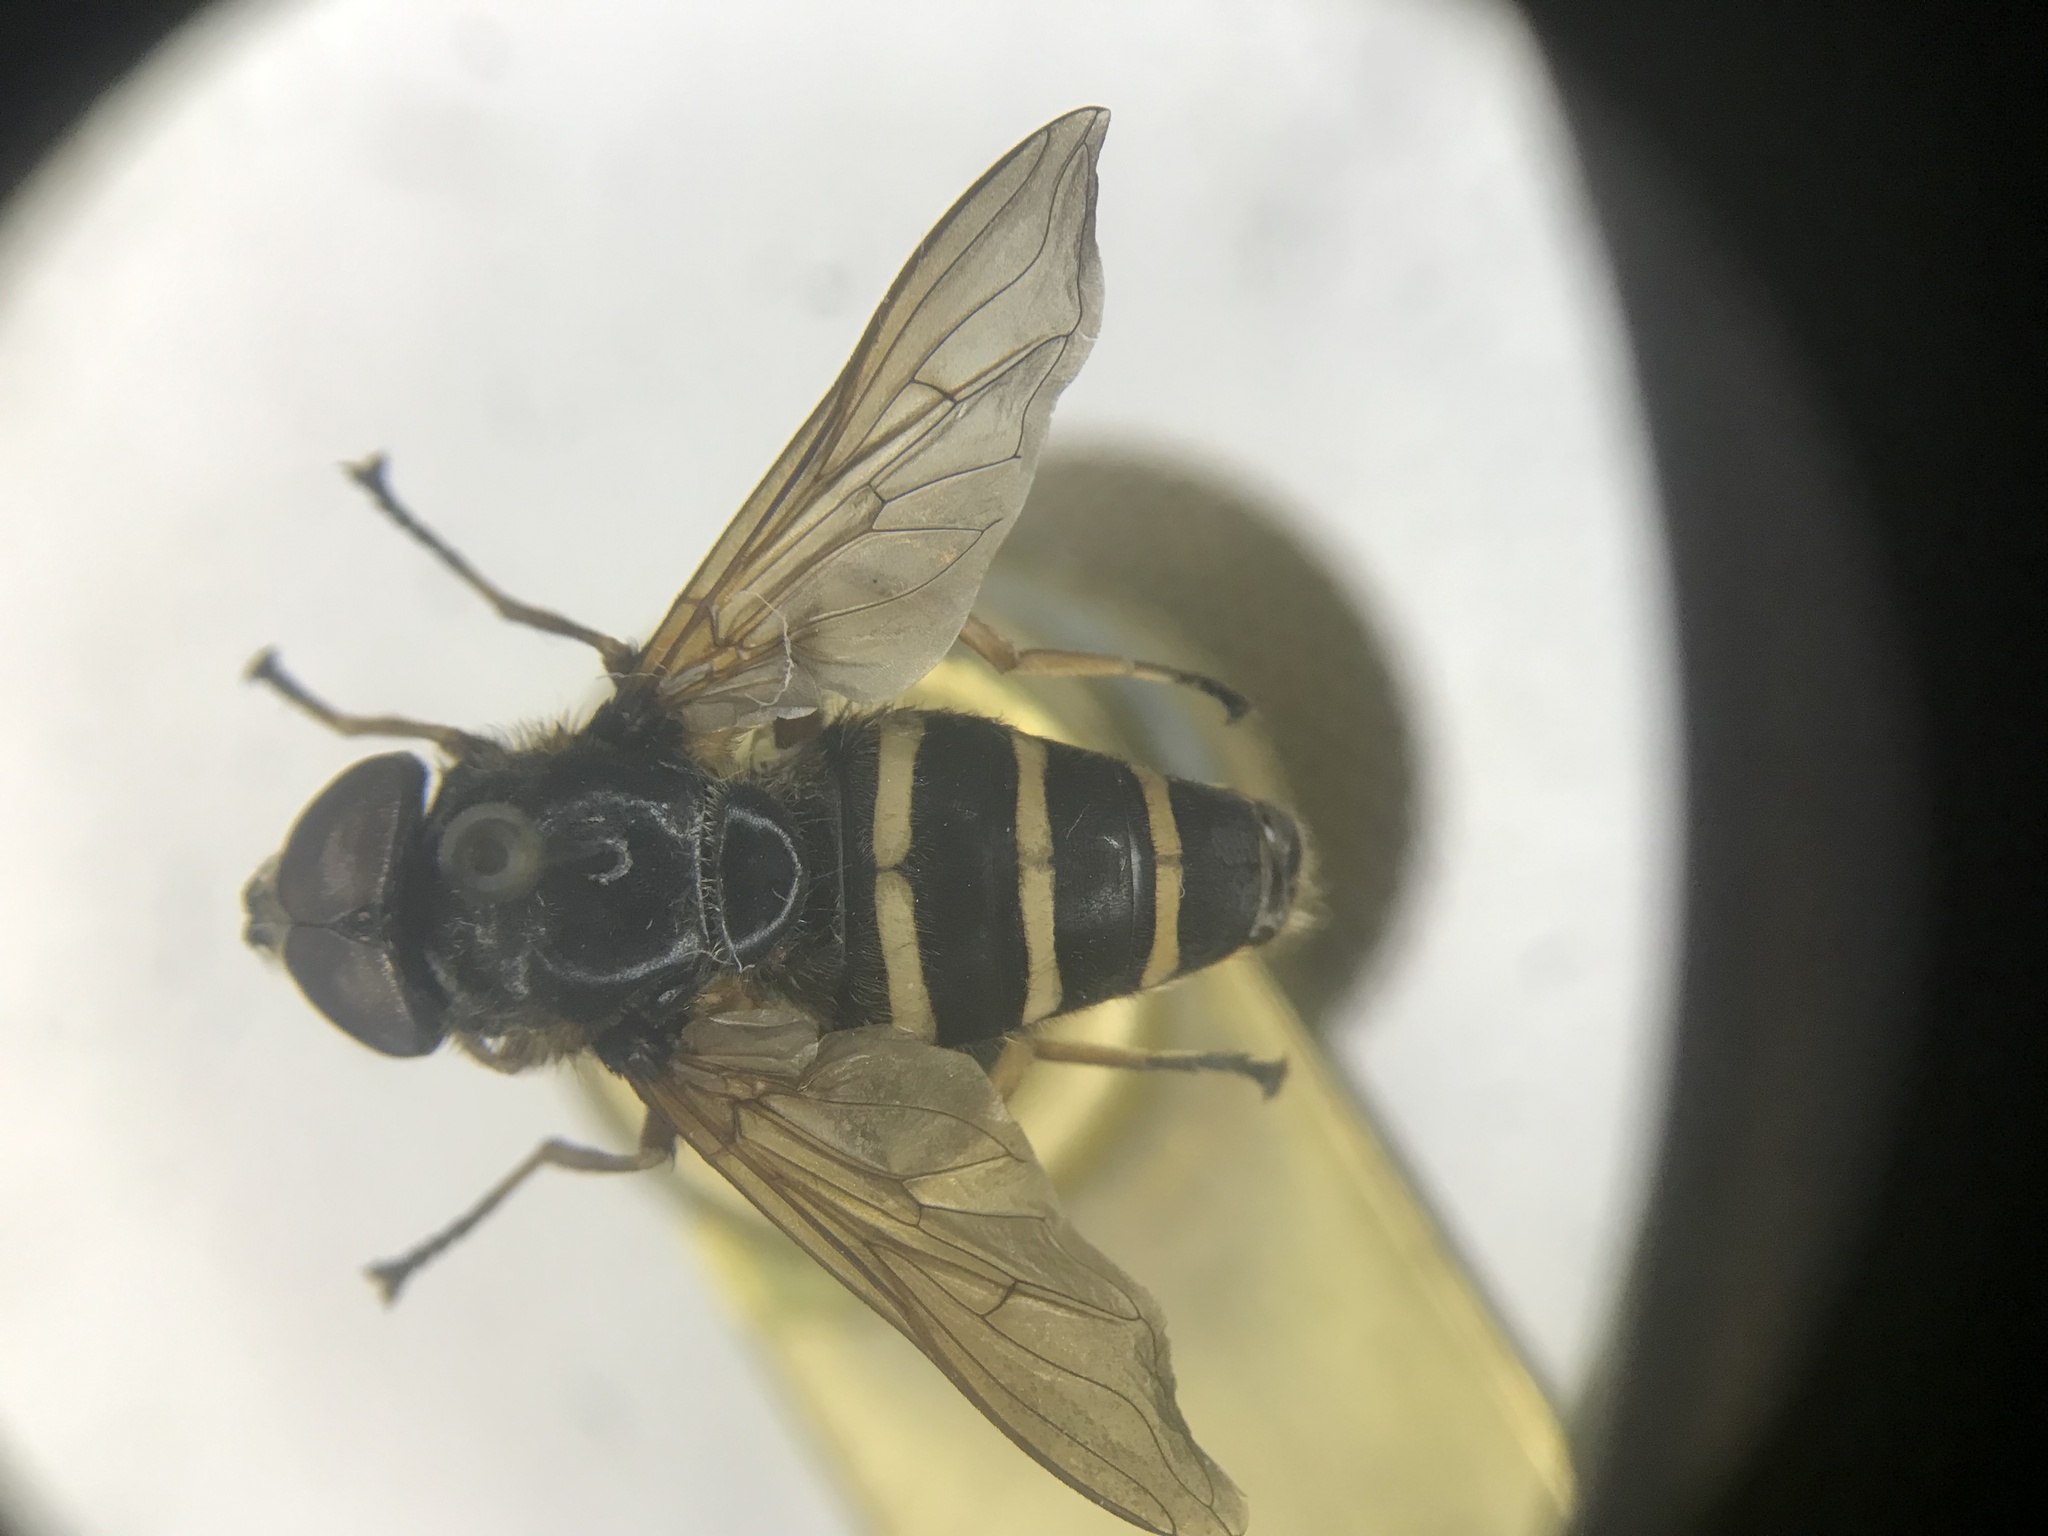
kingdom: Animalia
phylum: Arthropoda
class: Insecta
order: Diptera
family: Syrphidae
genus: Sericomyia
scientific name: Sericomyia nigra
